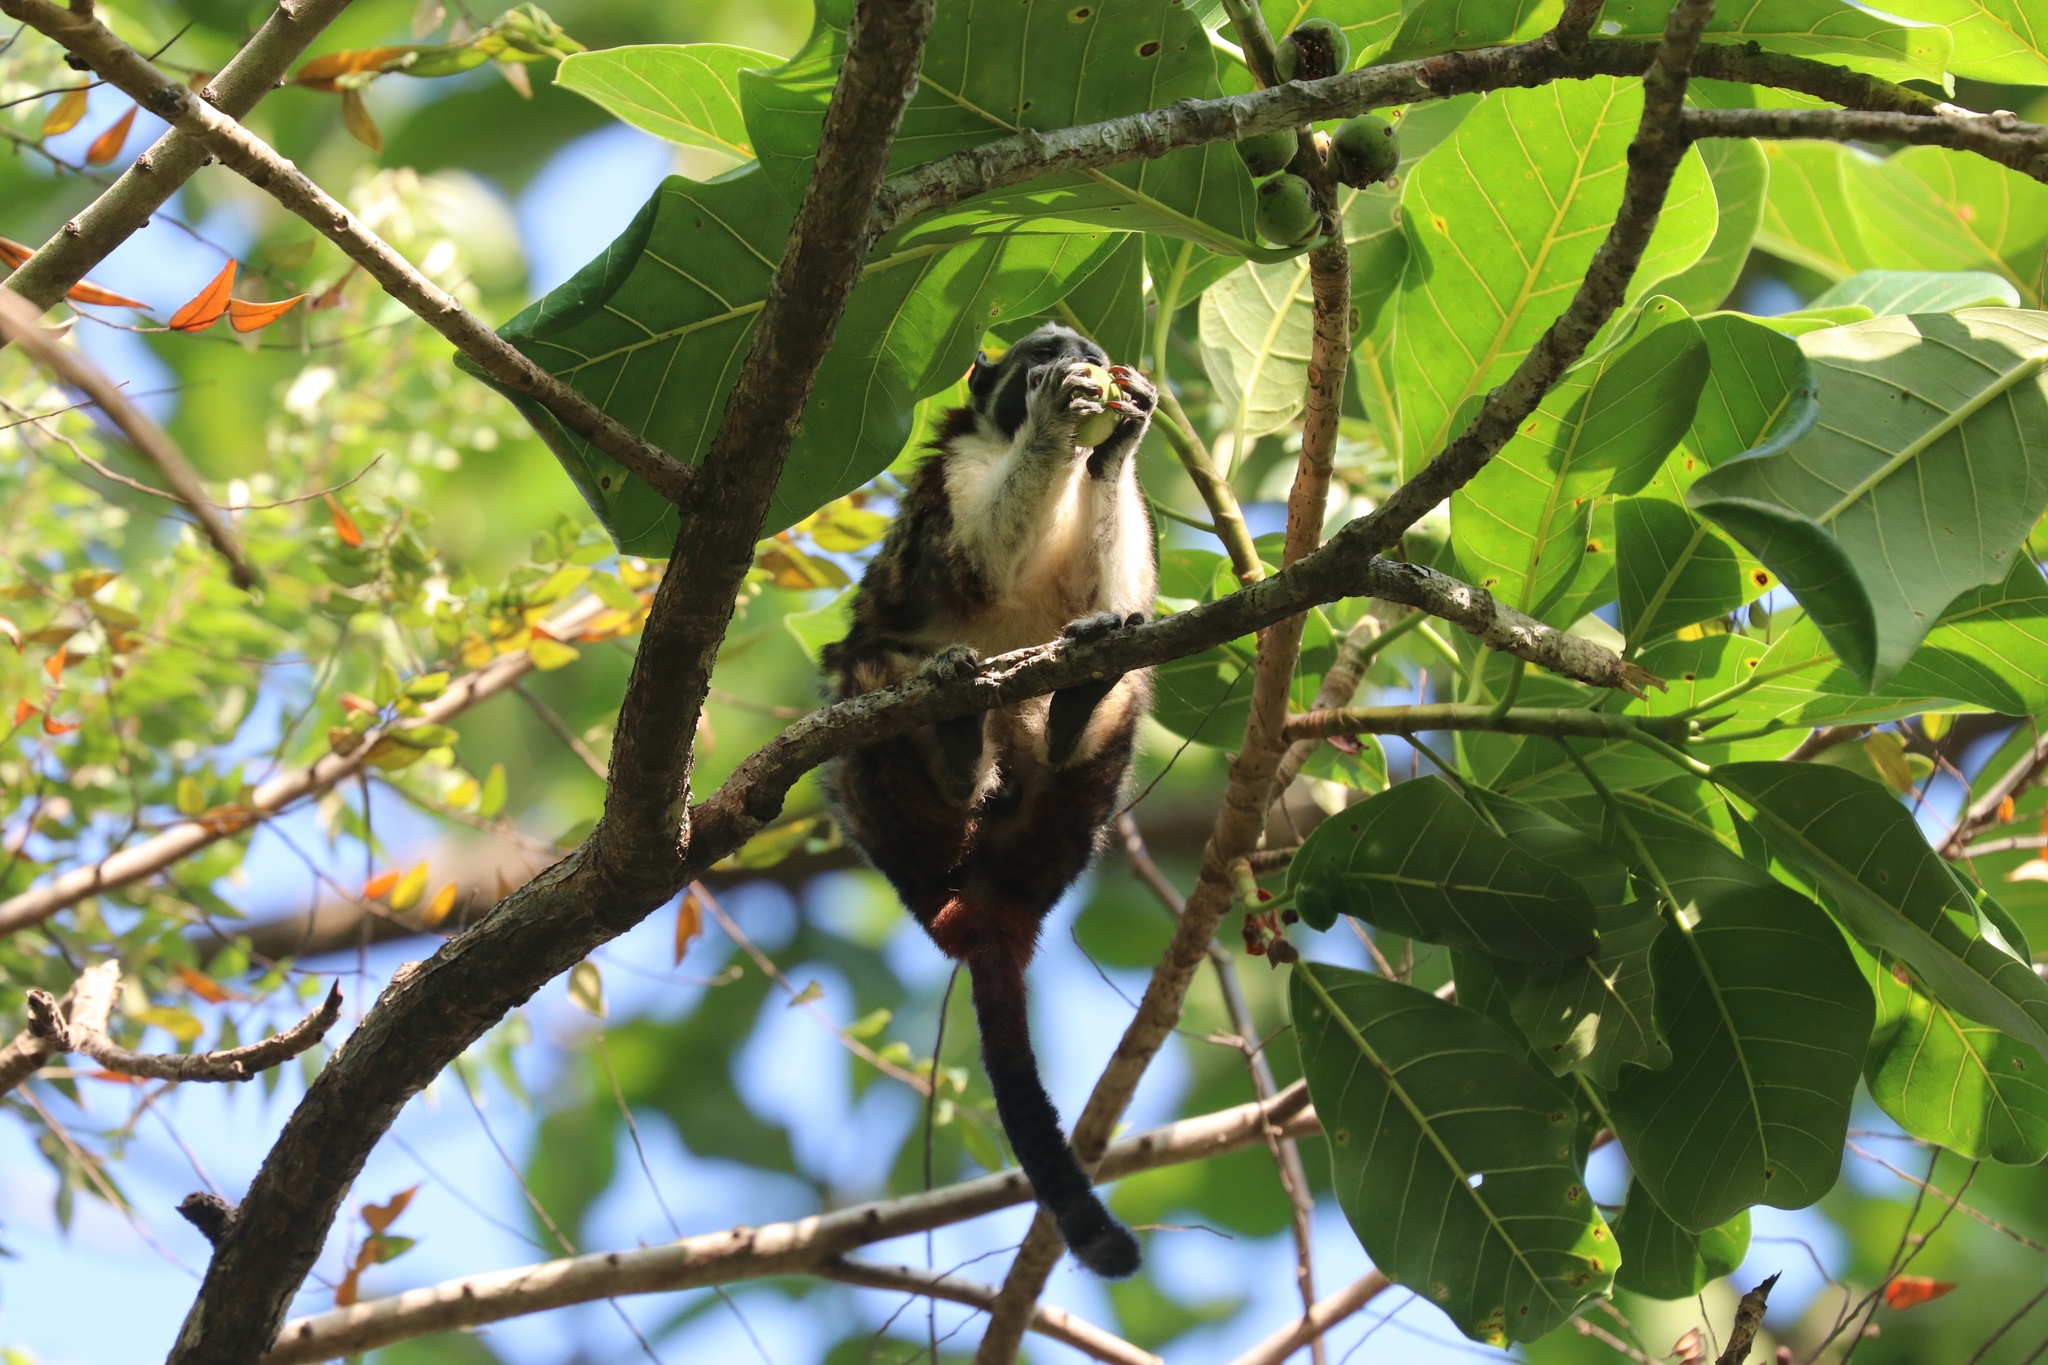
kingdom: Animalia
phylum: Chordata
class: Mammalia
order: Primates
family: Callitrichidae
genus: Saguinus
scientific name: Saguinus geoffroyi
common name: Geoffroy s tamarin
